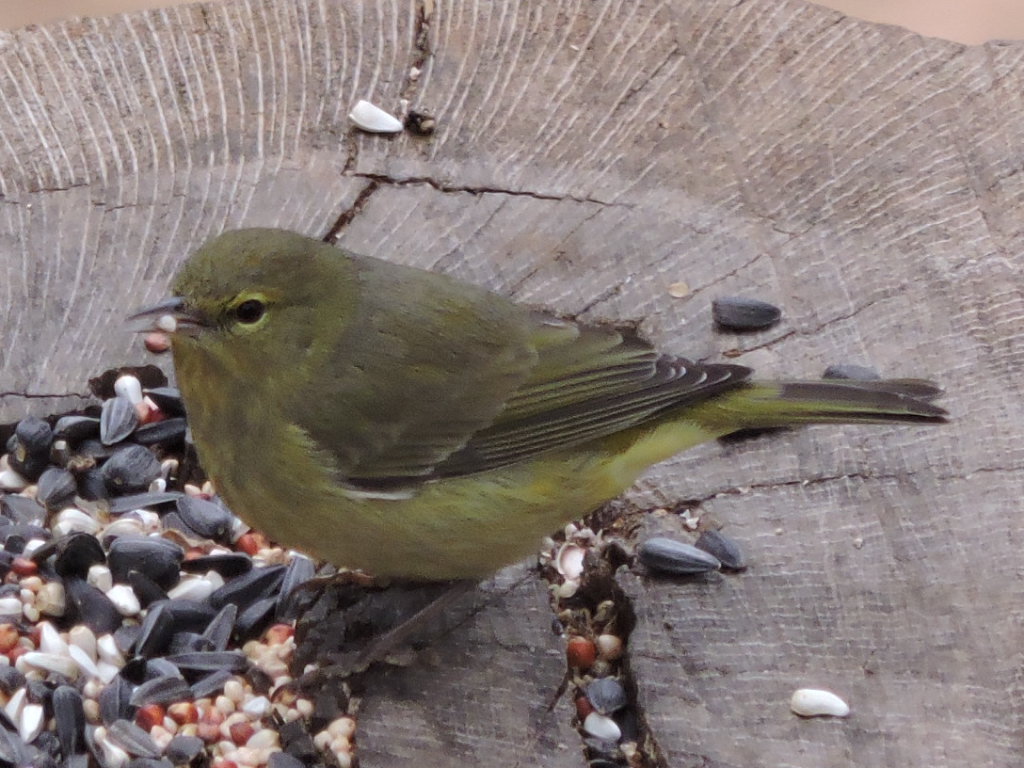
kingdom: Animalia
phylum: Chordata
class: Aves
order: Passeriformes
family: Parulidae
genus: Leiothlypis
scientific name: Leiothlypis celata
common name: Orange-crowned warbler
